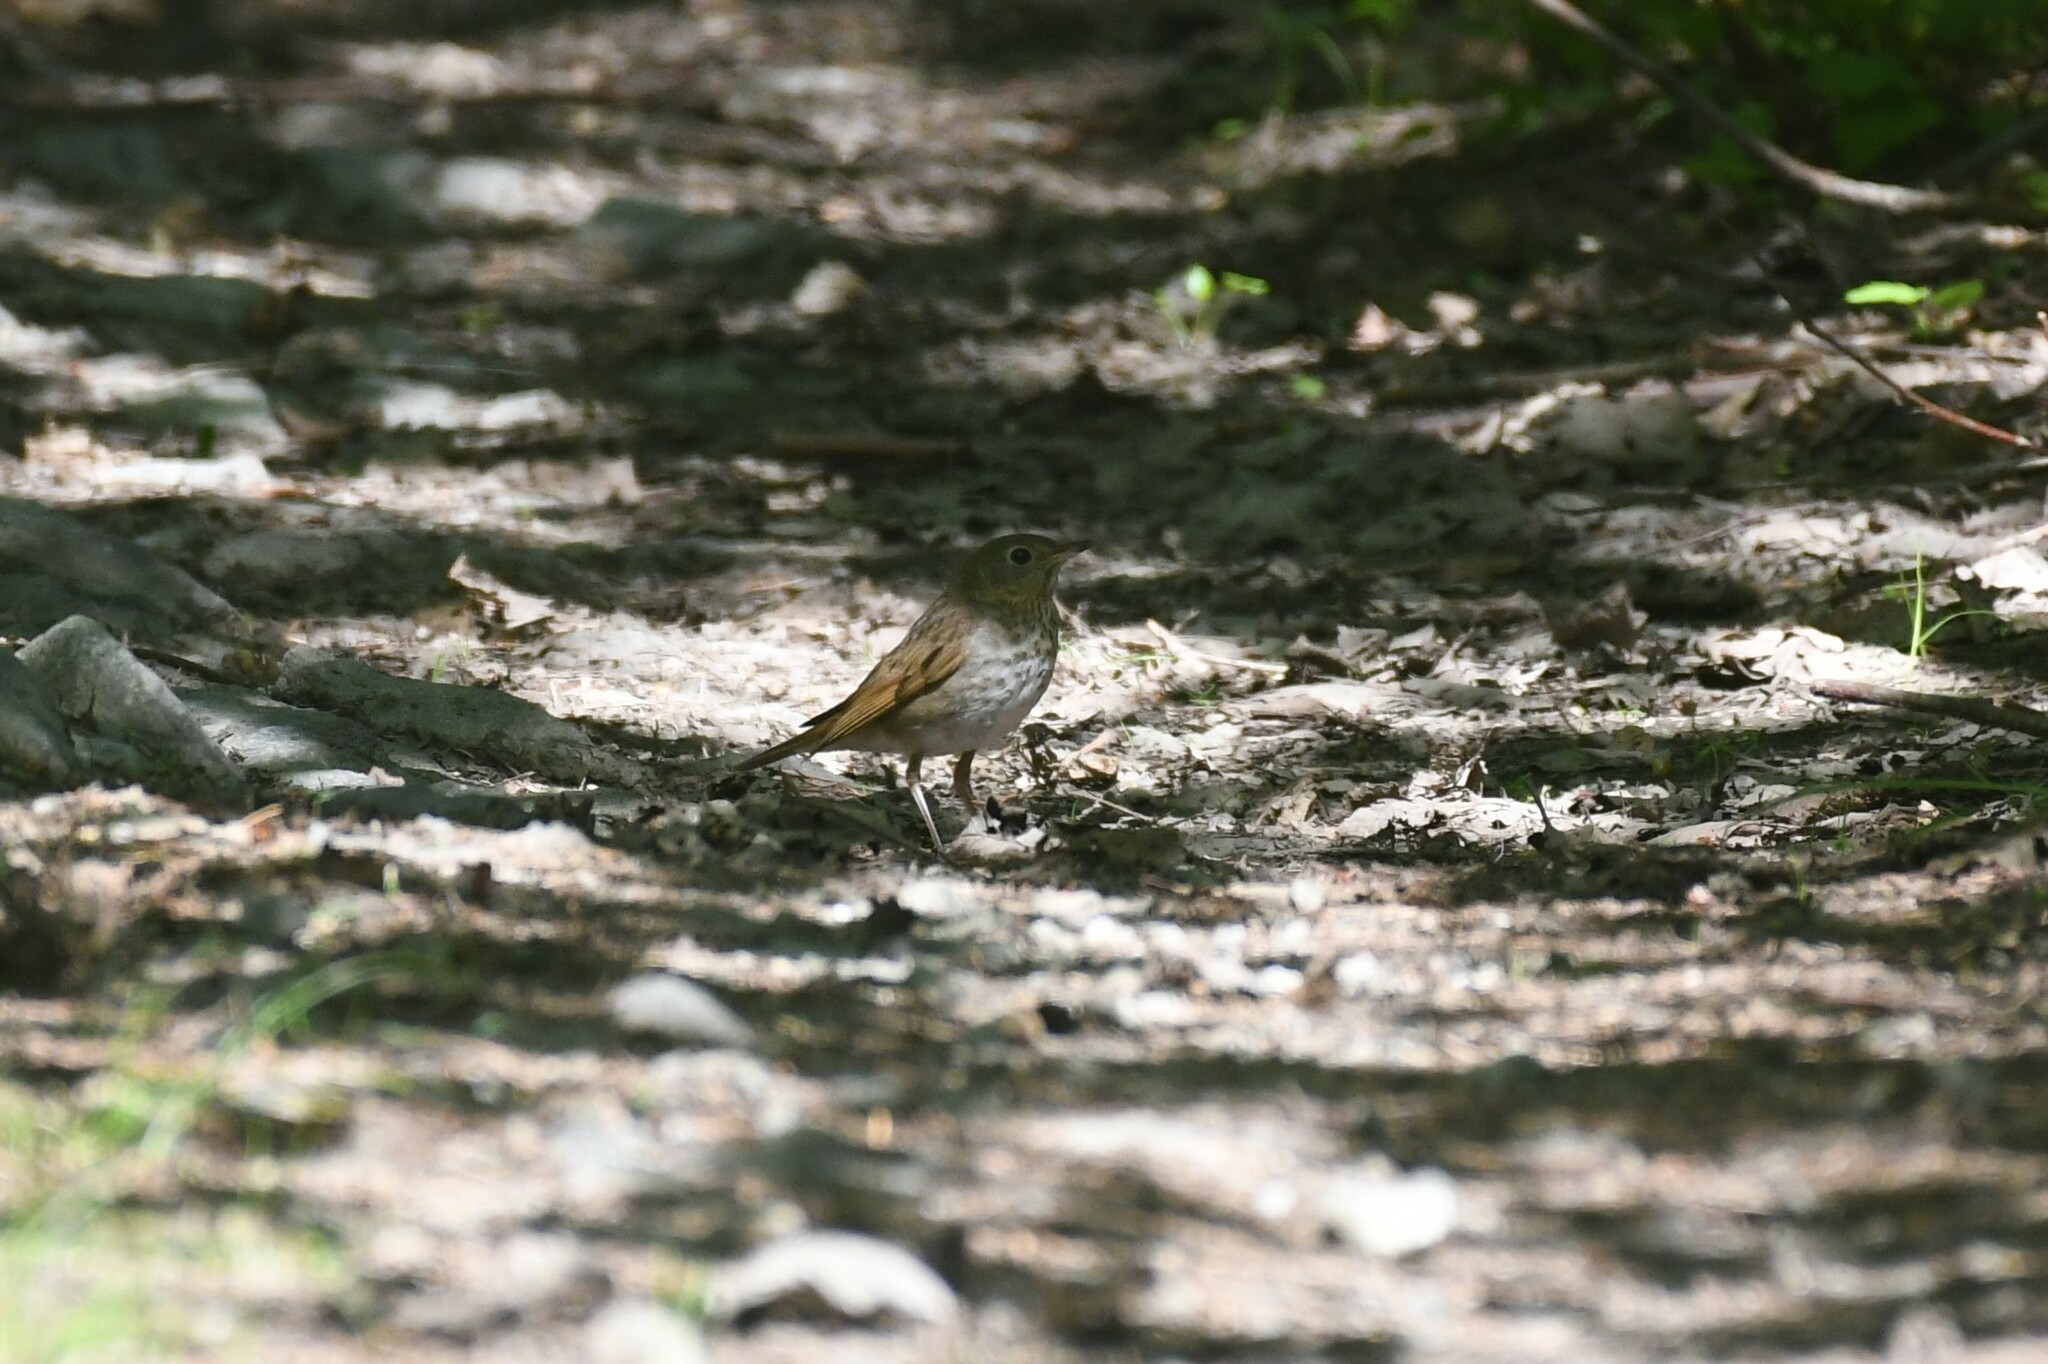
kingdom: Animalia
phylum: Chordata
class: Aves
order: Passeriformes
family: Turdidae
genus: Catharus
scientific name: Catharus ustulatus
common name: Swainson's thrush
